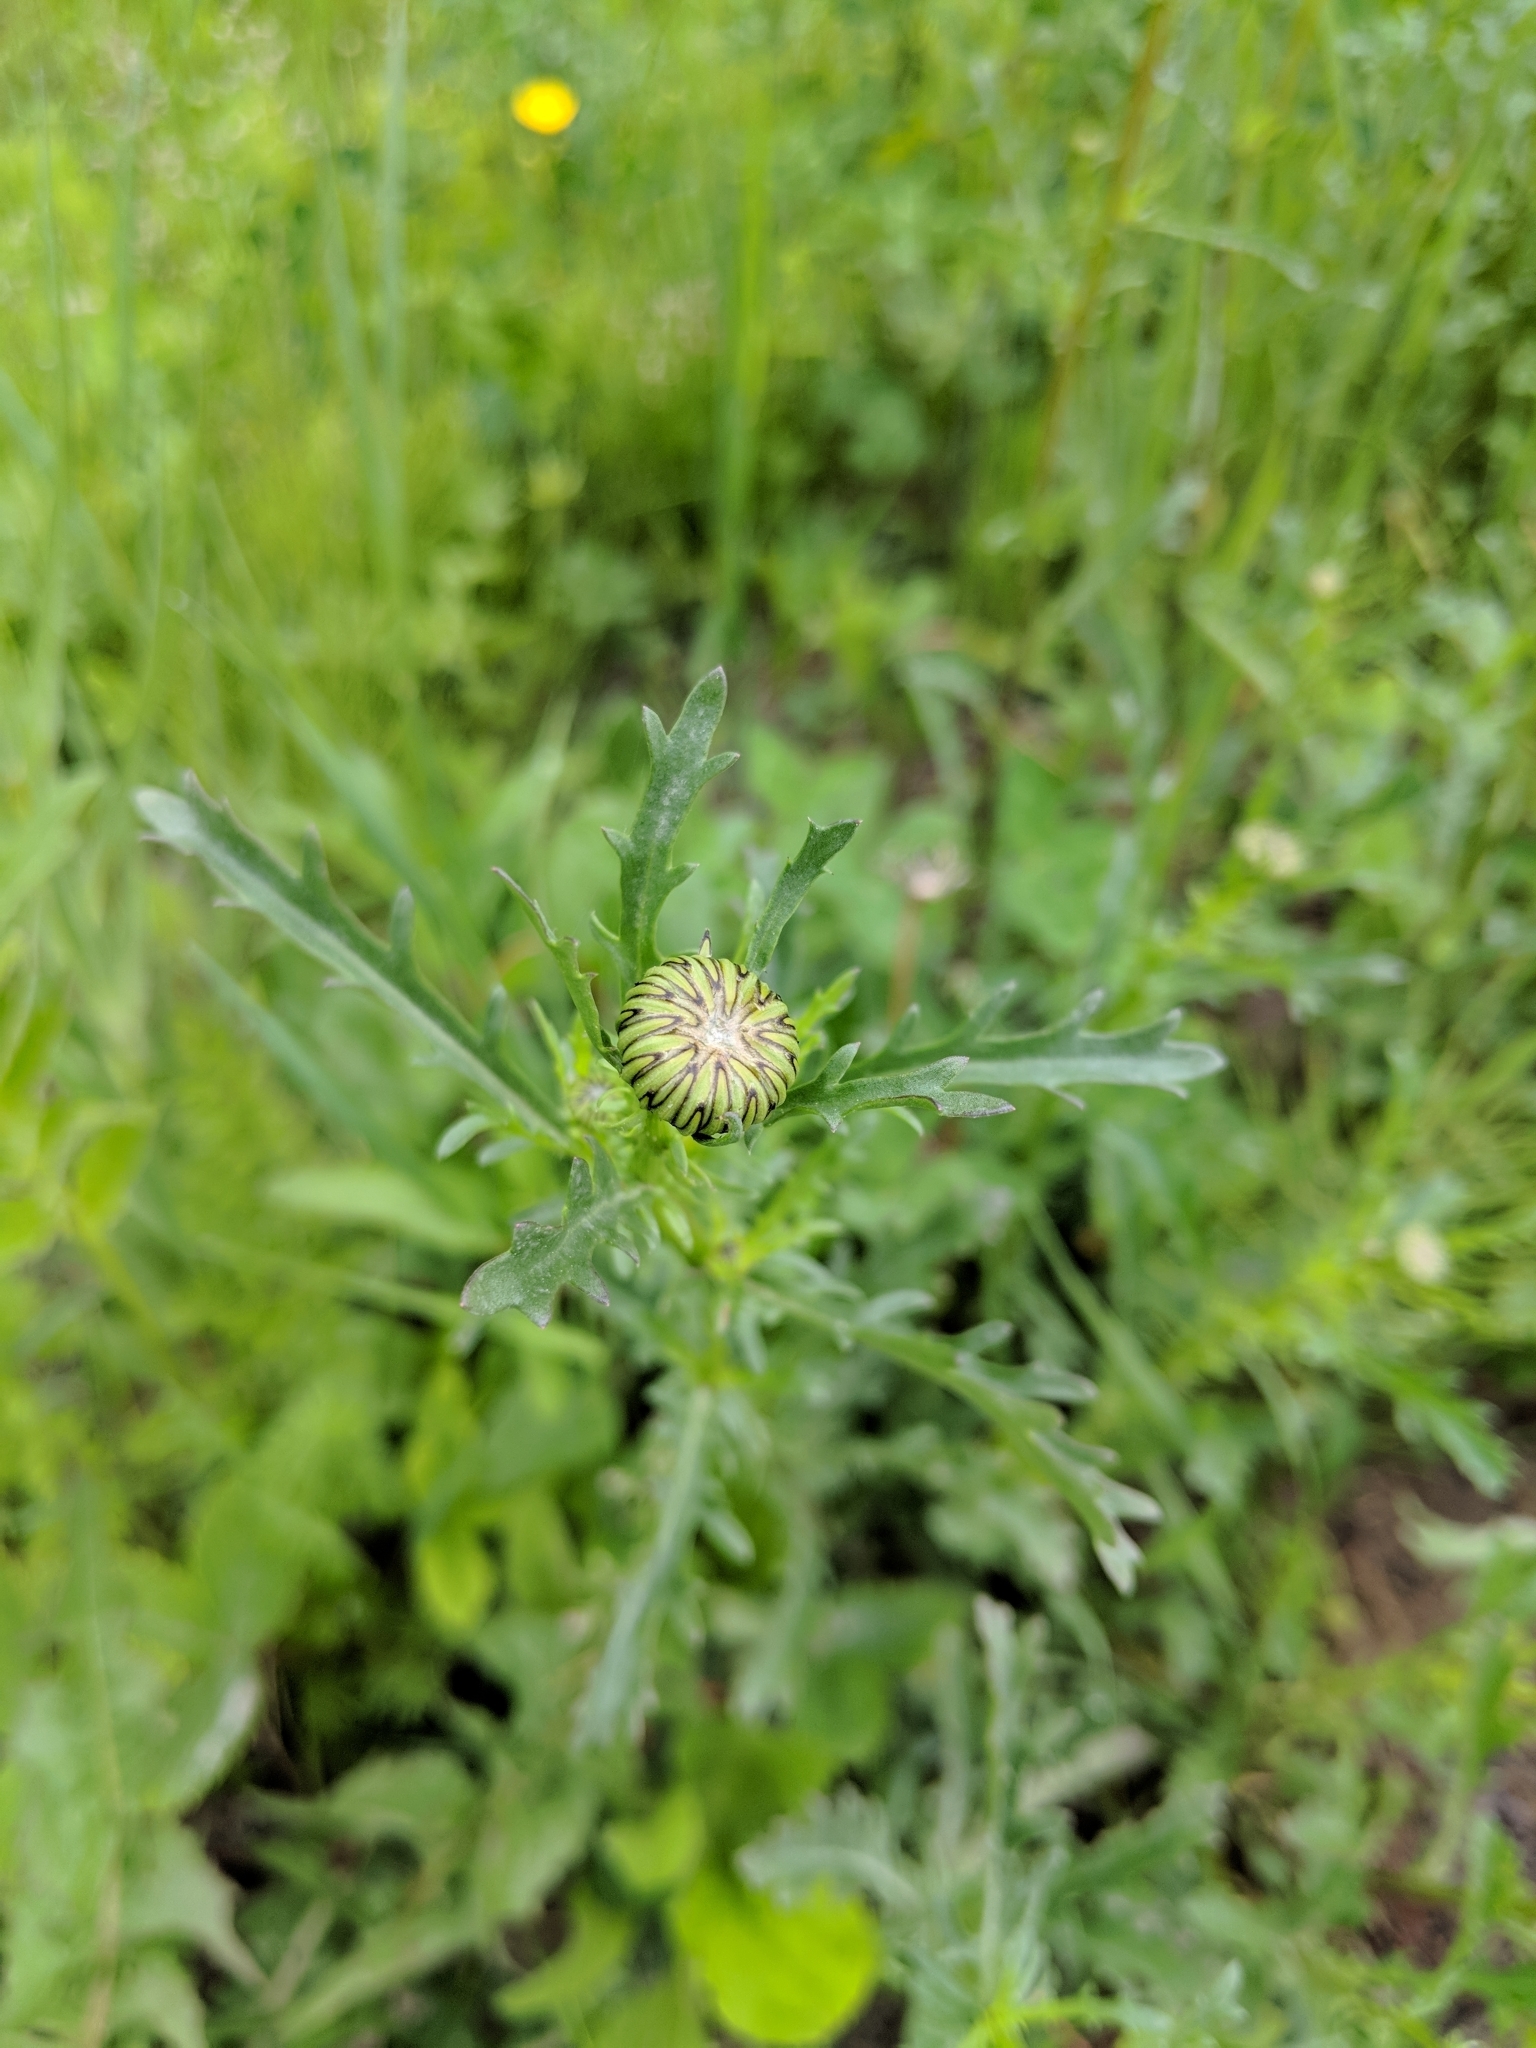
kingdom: Plantae
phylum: Tracheophyta
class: Magnoliopsida
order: Asterales
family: Asteraceae
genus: Leucanthemum
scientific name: Leucanthemum vulgare
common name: Oxeye daisy
